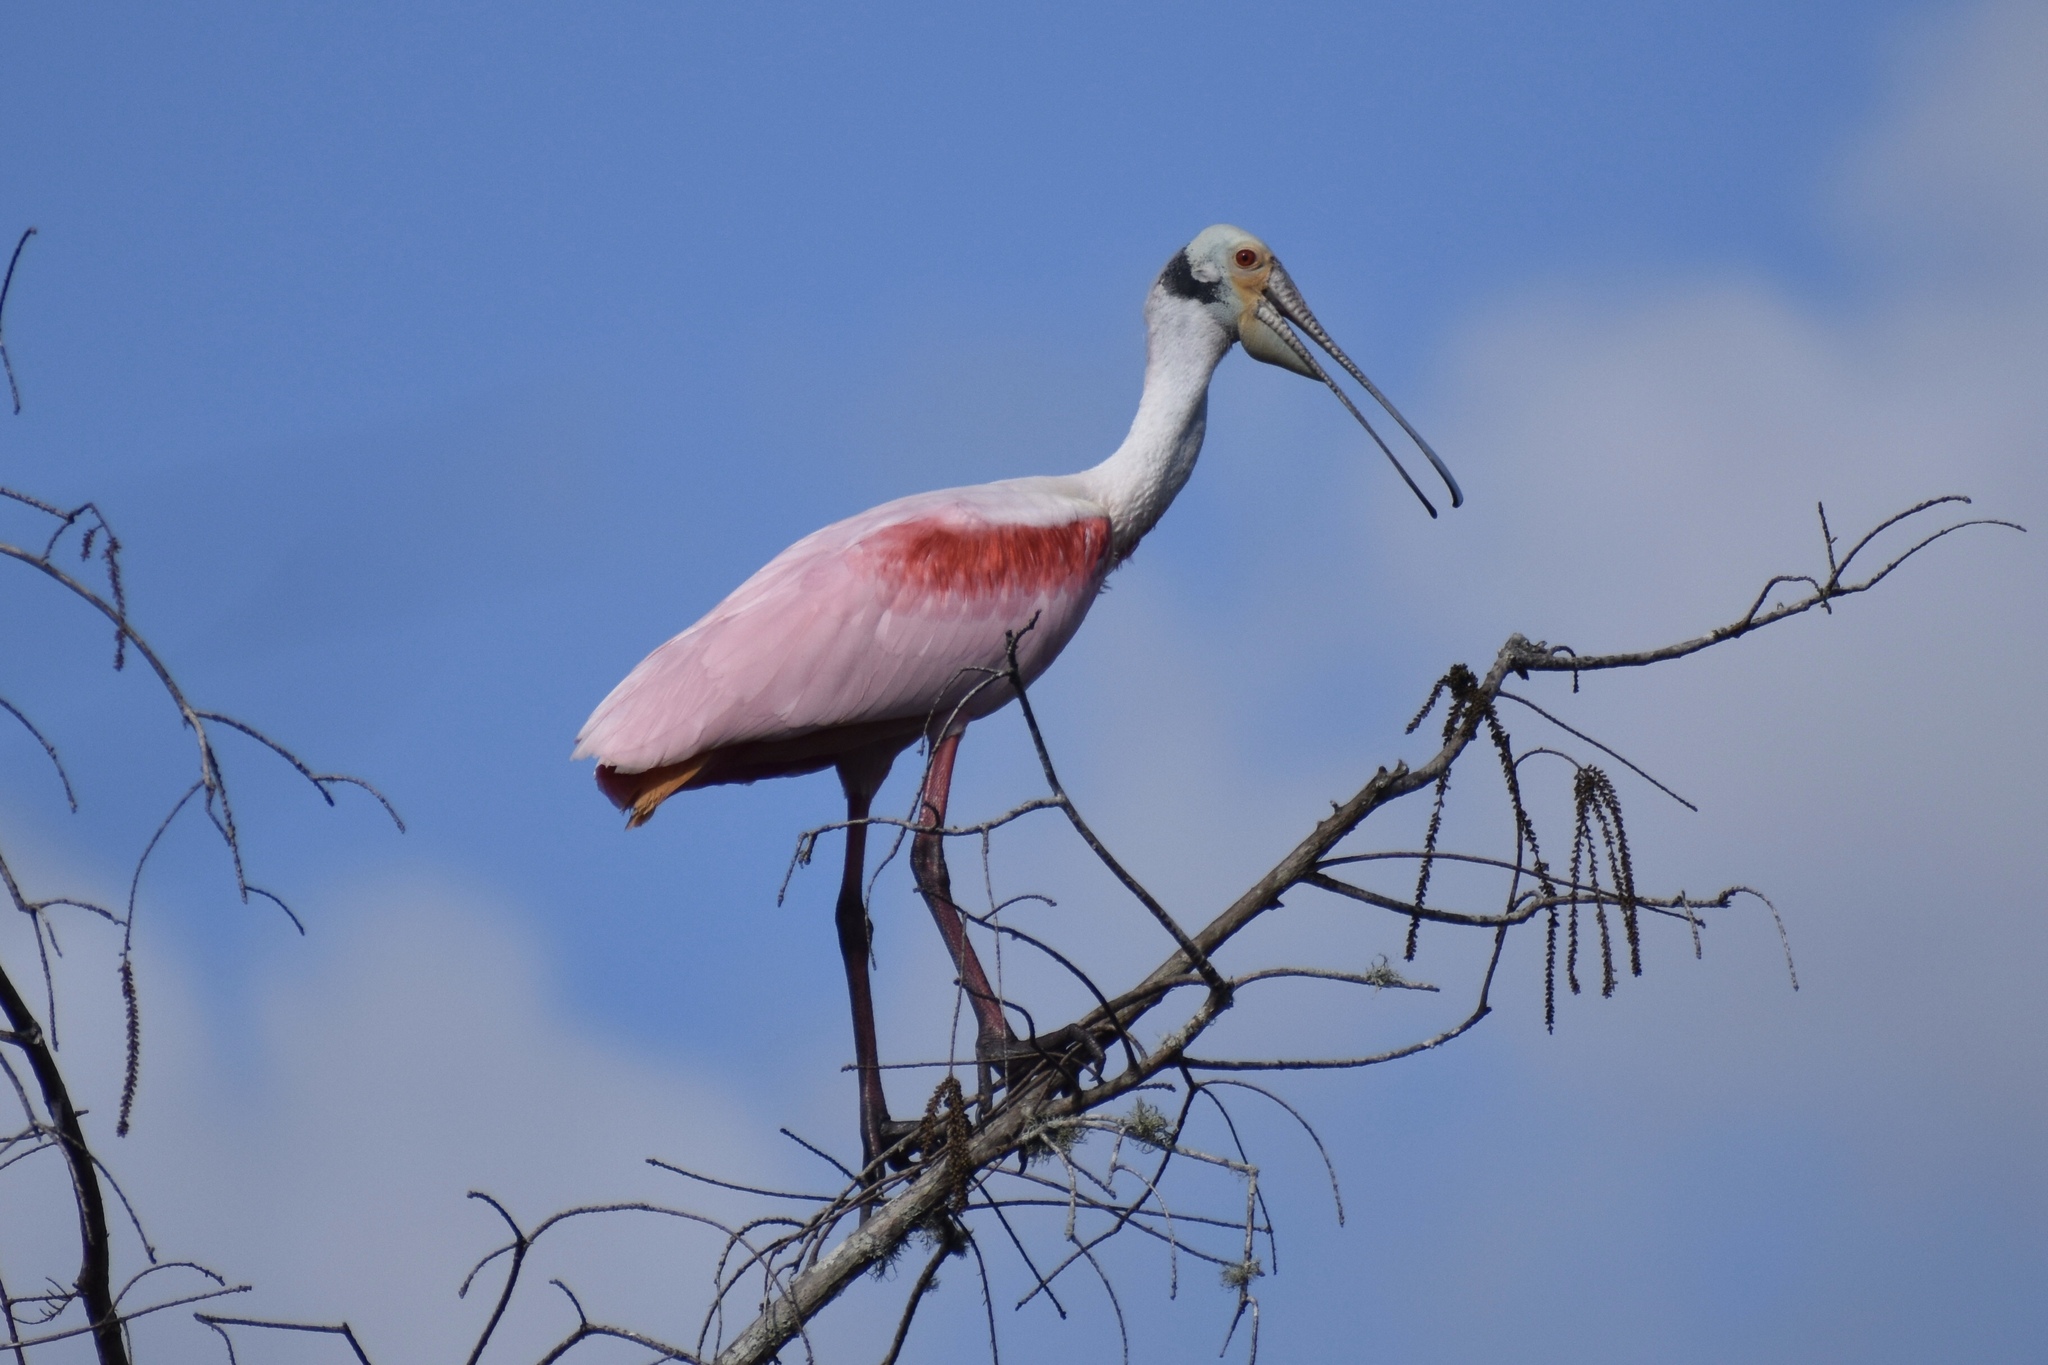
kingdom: Animalia
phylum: Chordata
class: Aves
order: Pelecaniformes
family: Threskiornithidae
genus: Platalea
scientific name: Platalea ajaja
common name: Roseate spoonbill
